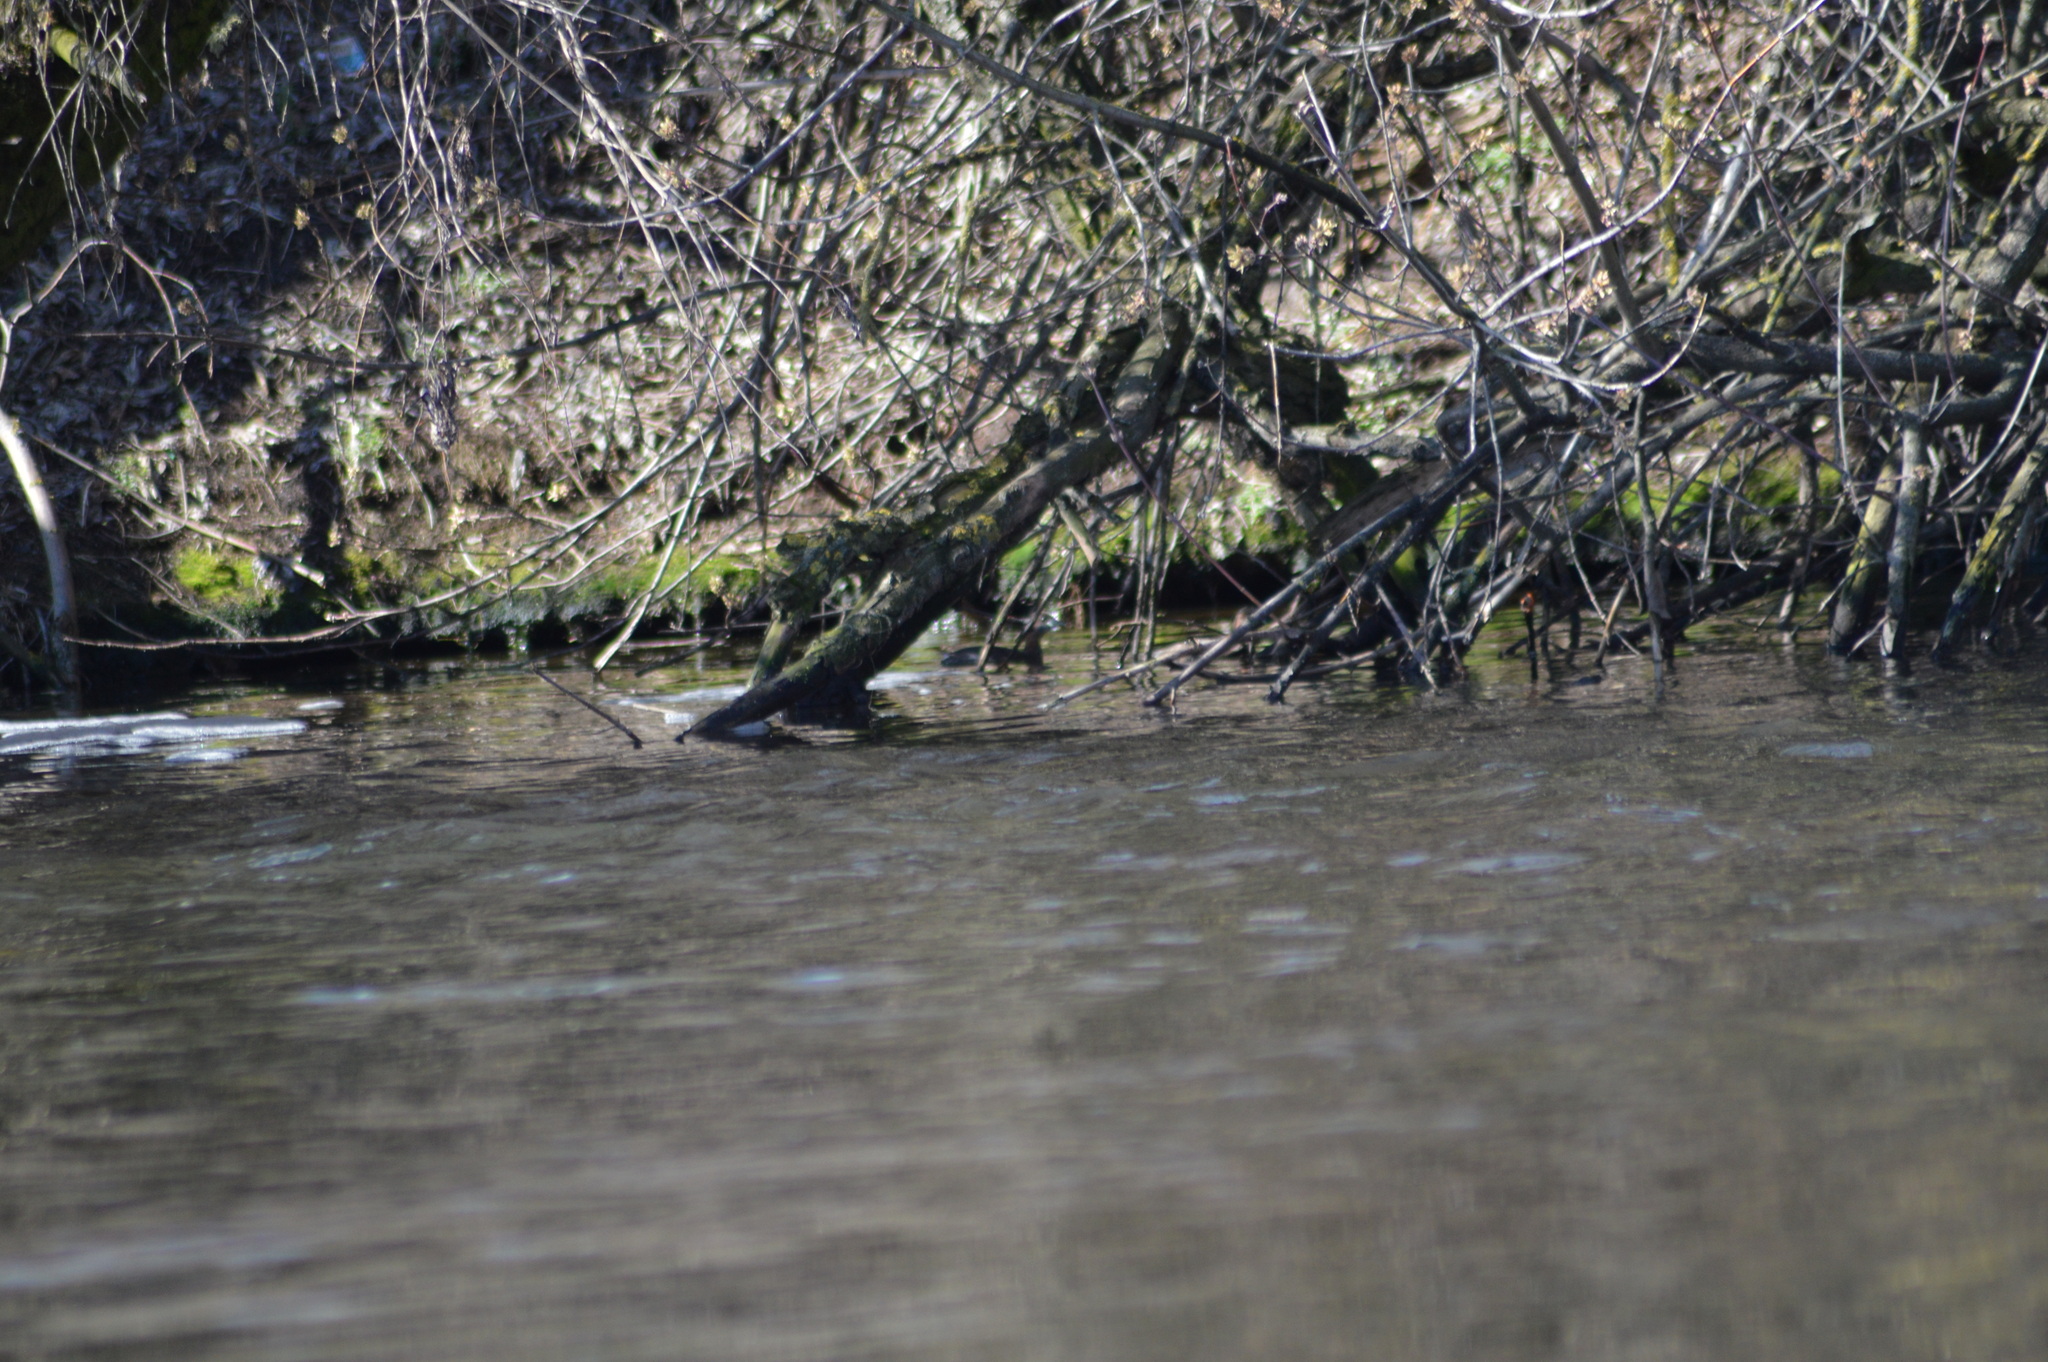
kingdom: Animalia
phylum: Chordata
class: Aves
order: Podicipediformes
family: Podicipedidae
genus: Tachybaptus
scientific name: Tachybaptus ruficollis
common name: Little grebe
